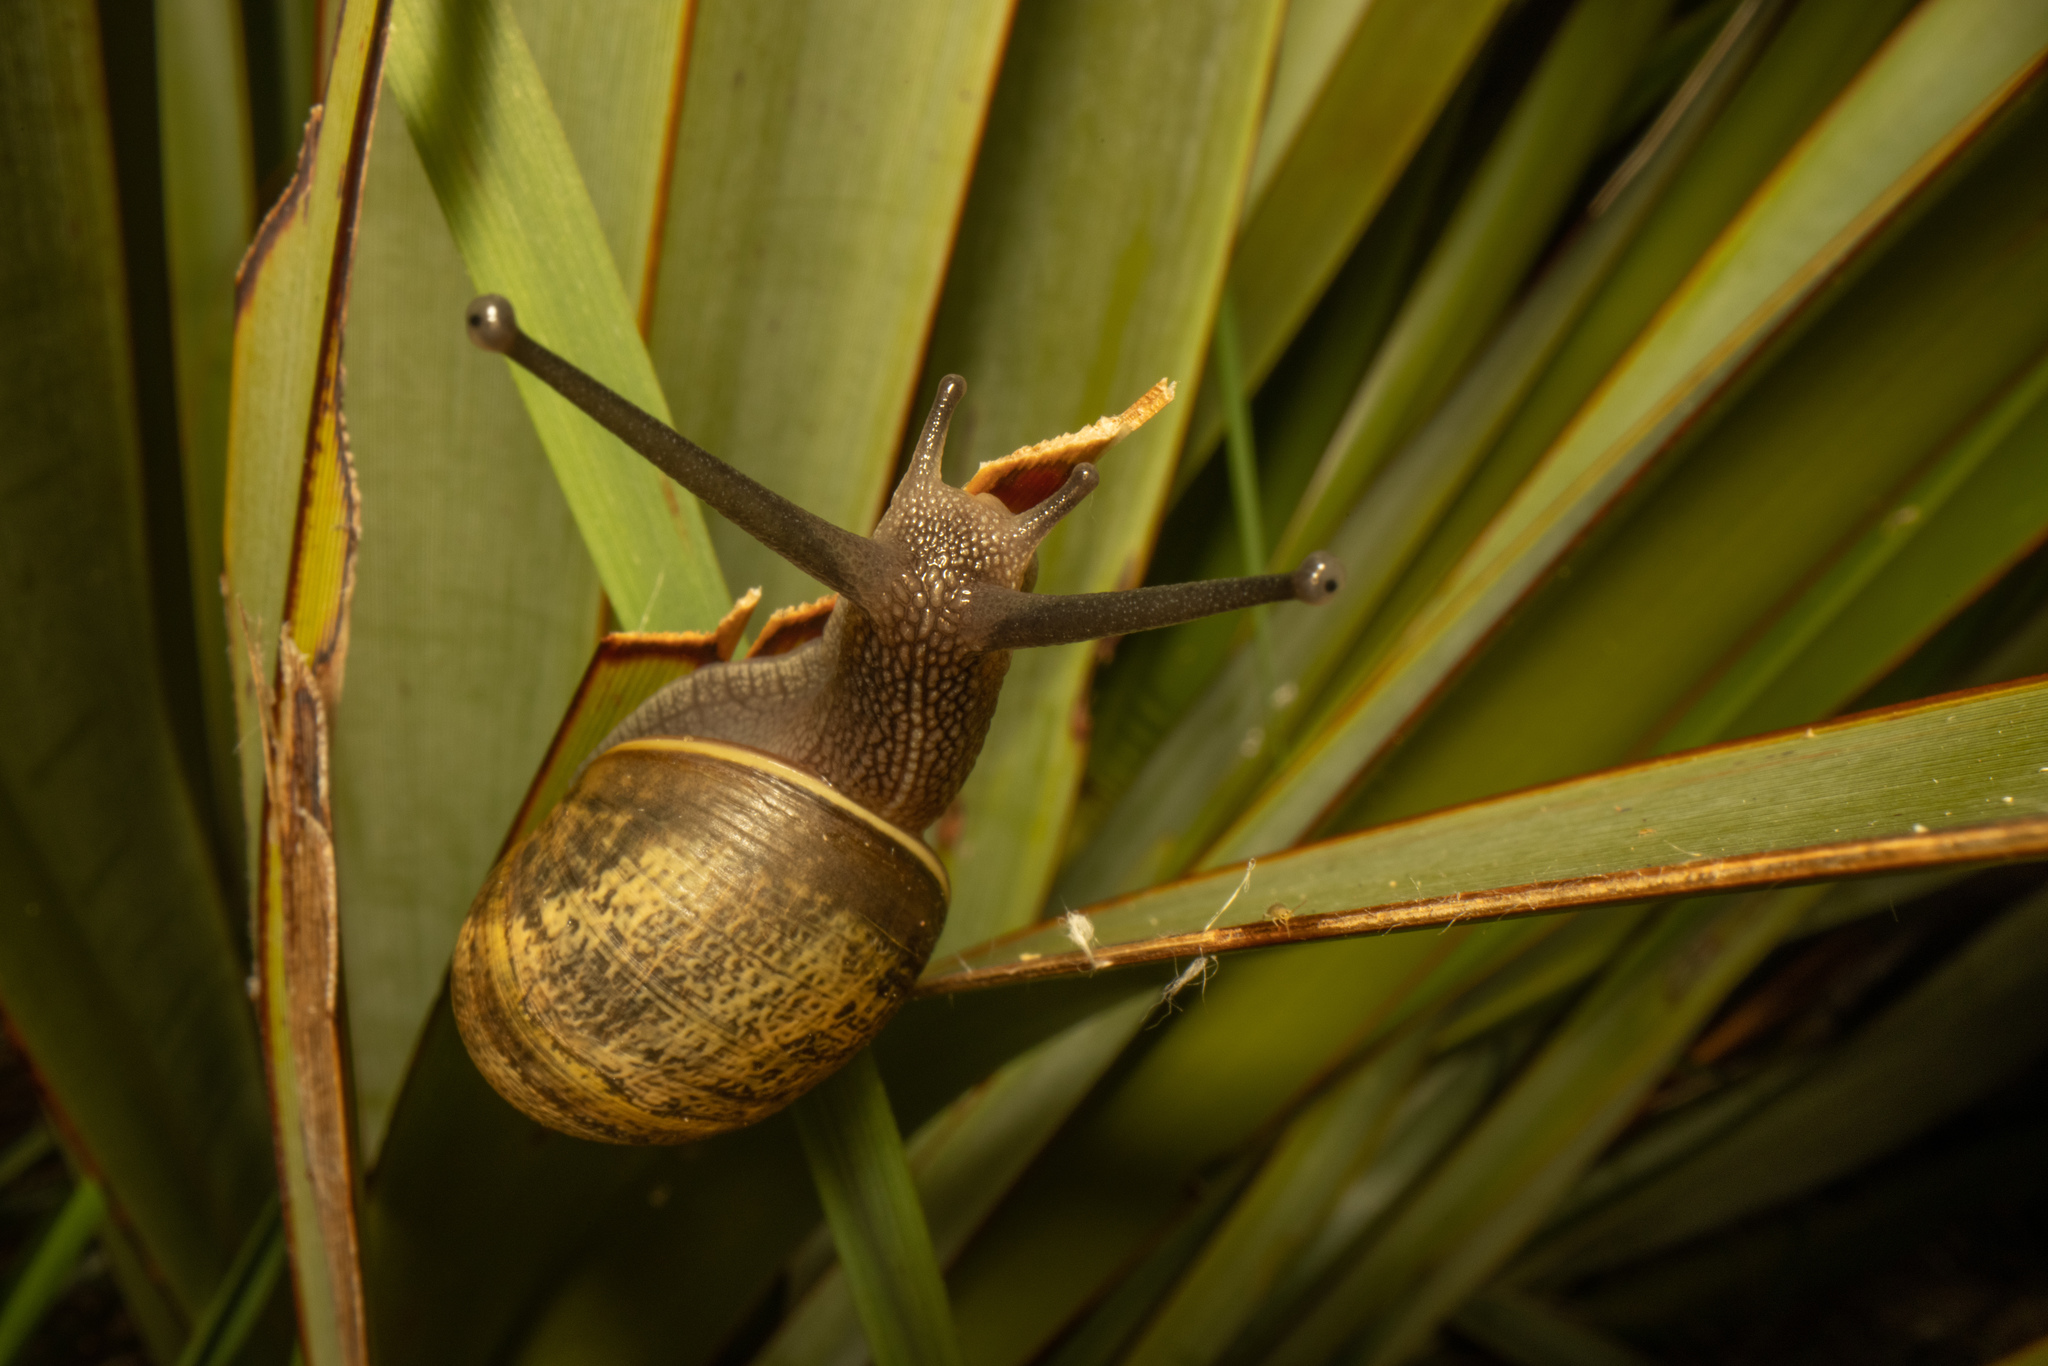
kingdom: Animalia
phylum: Mollusca
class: Gastropoda
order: Stylommatophora
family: Helicidae
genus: Cornu
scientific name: Cornu aspersum
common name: Brown garden snail
